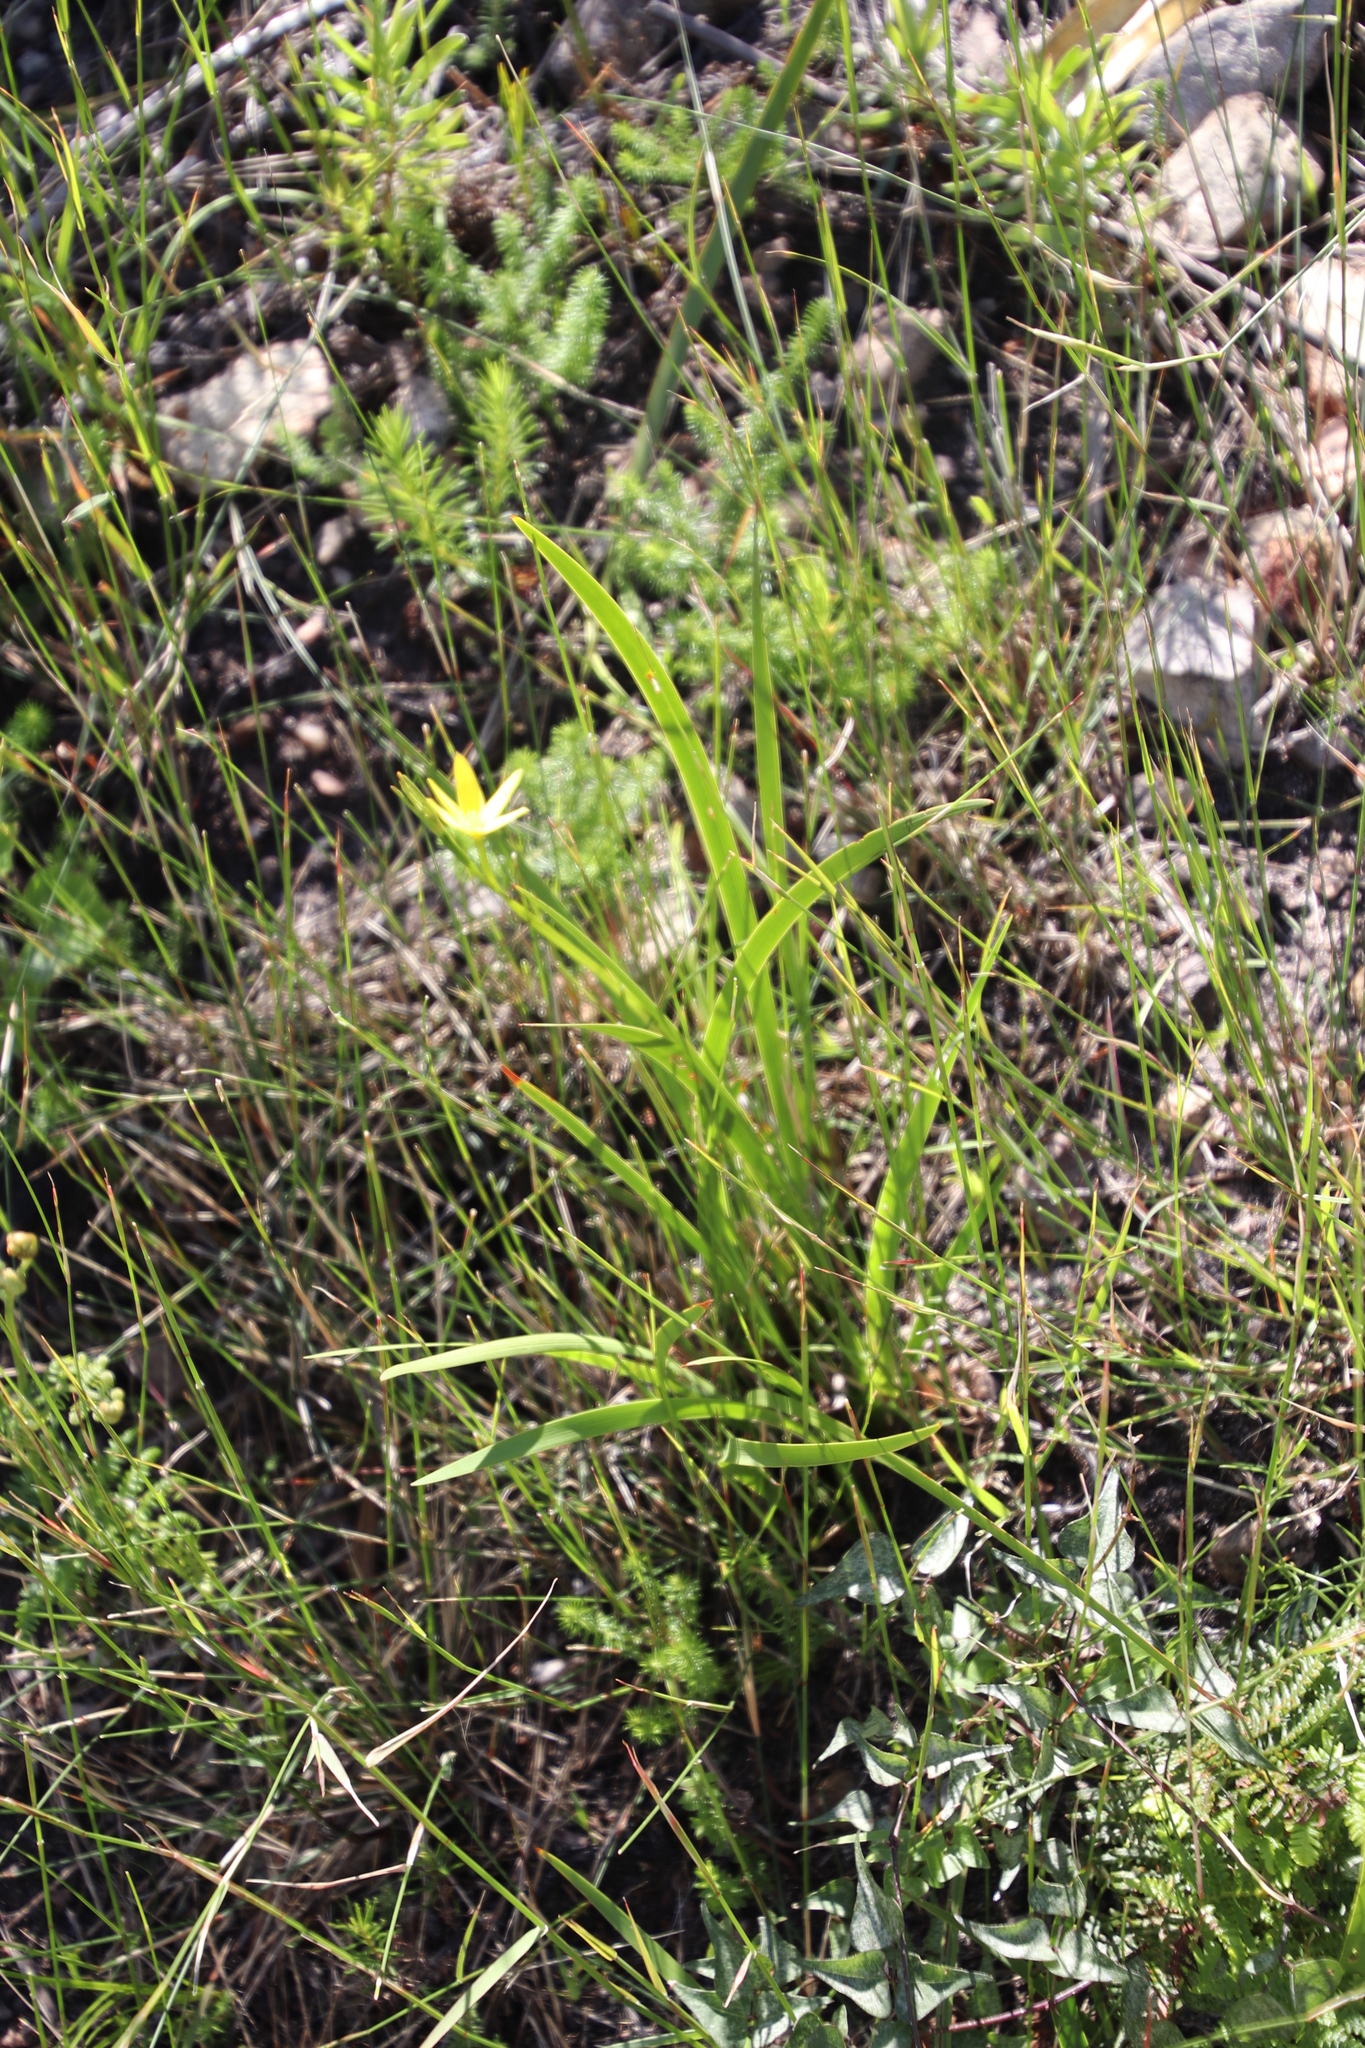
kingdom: Plantae
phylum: Tracheophyta
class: Liliopsida
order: Asparagales
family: Hypoxidaceae
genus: Pauridia
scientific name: Pauridia capensis
